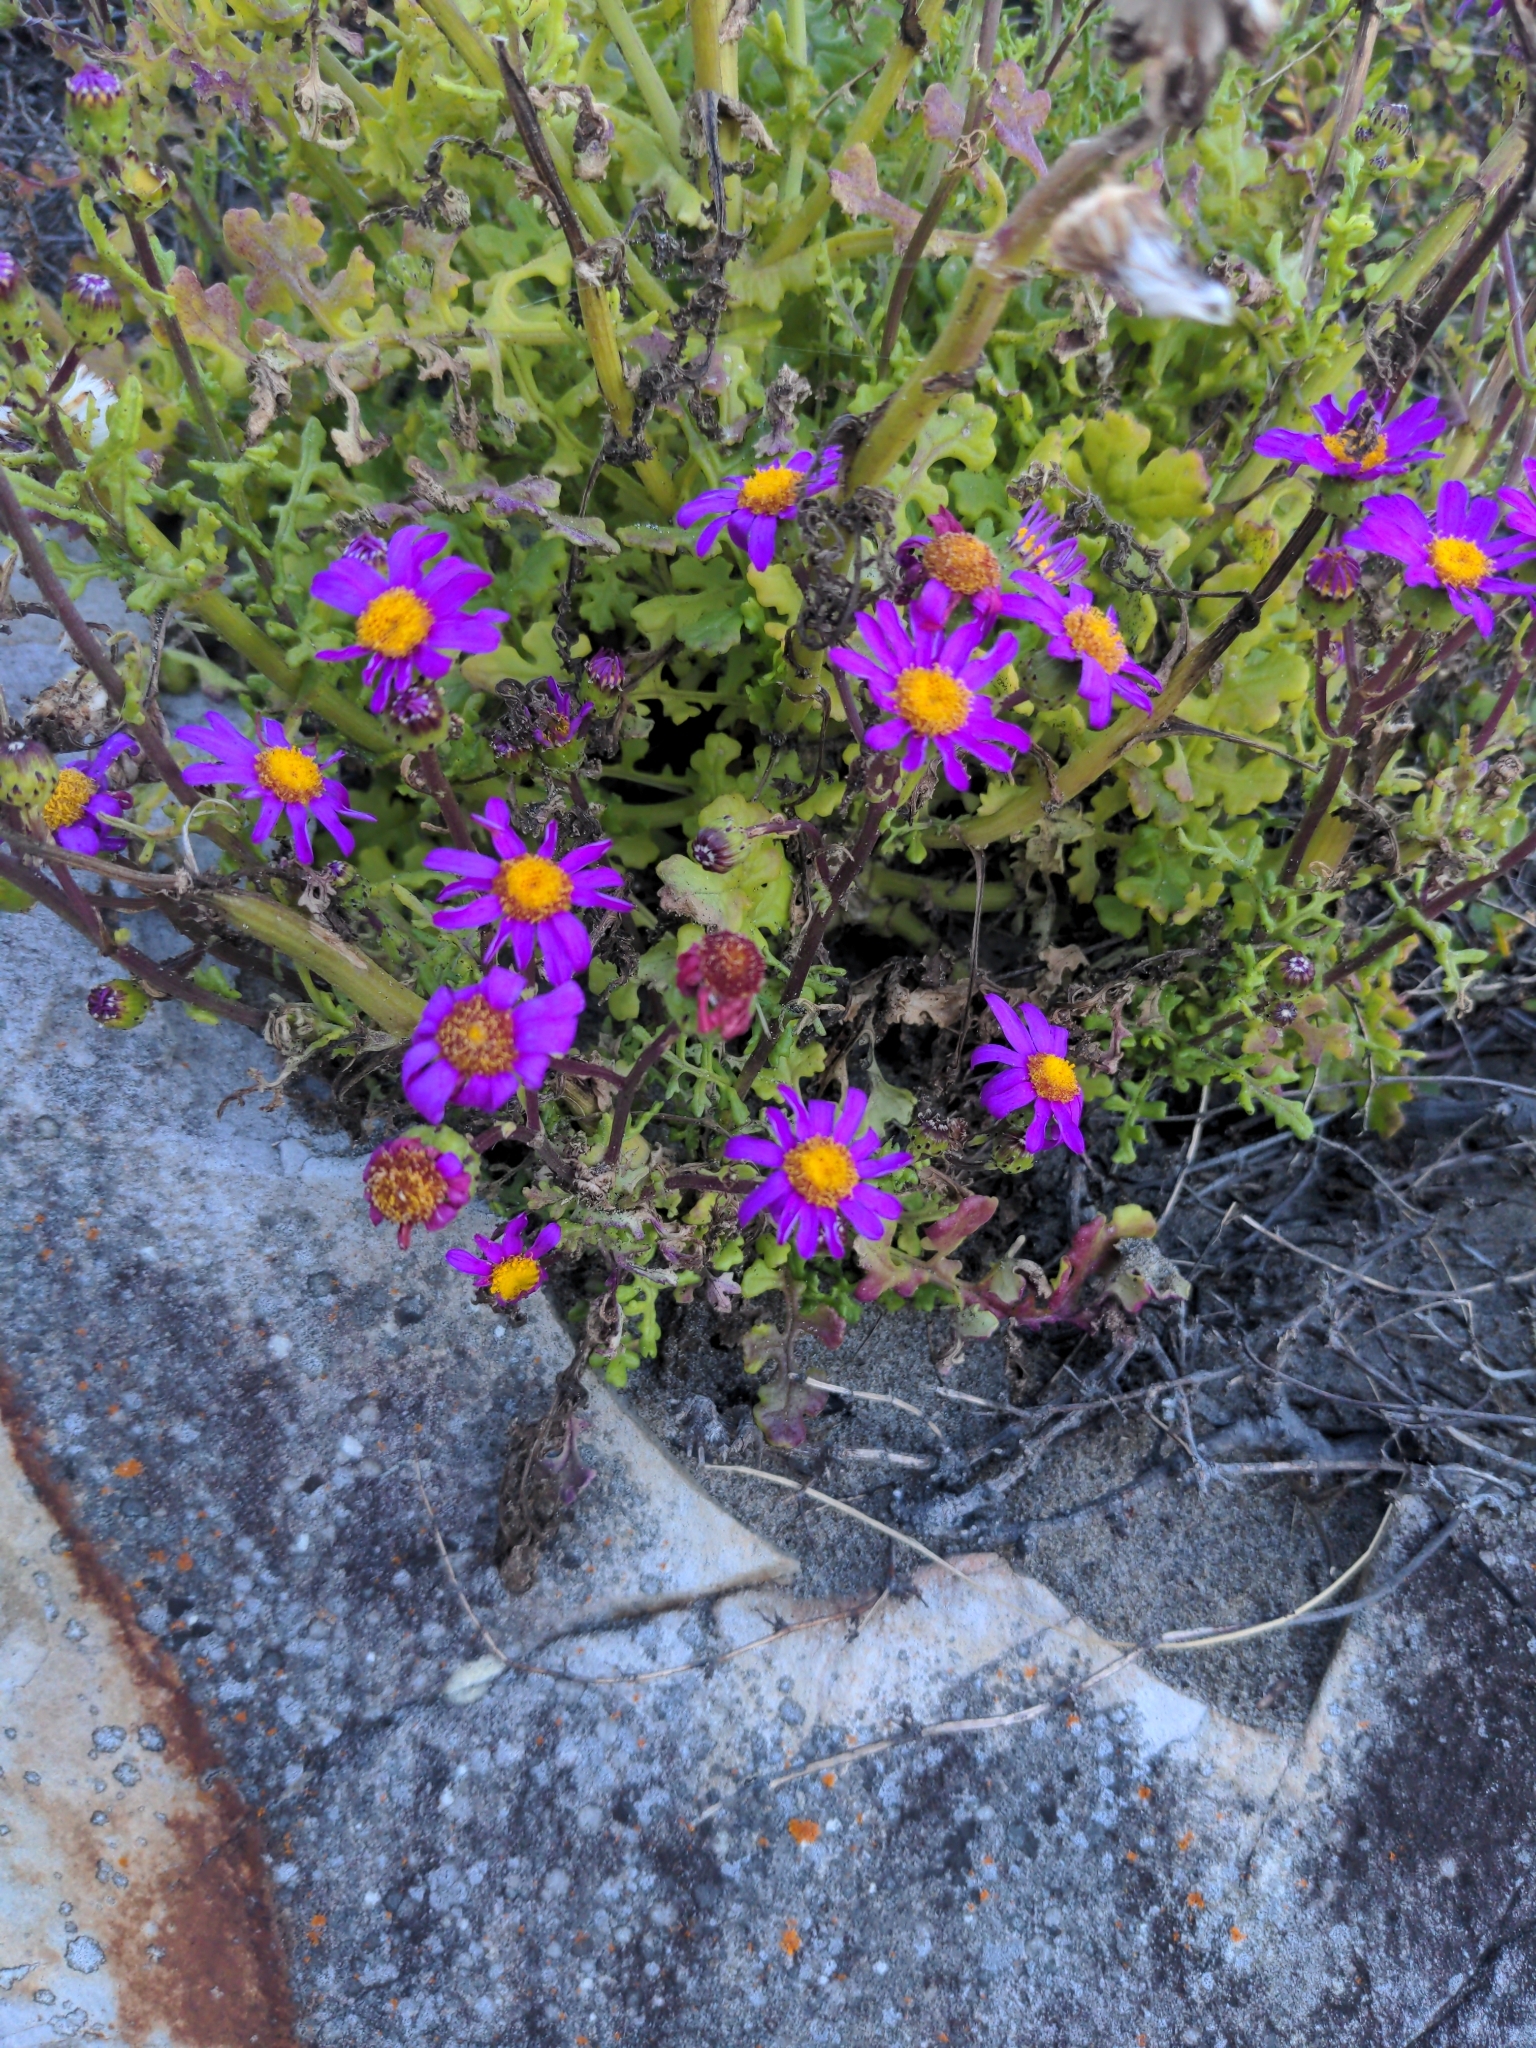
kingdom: Plantae
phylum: Tracheophyta
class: Magnoliopsida
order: Asterales
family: Asteraceae
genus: Senecio
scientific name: Senecio elegans
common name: Purple groundsel
